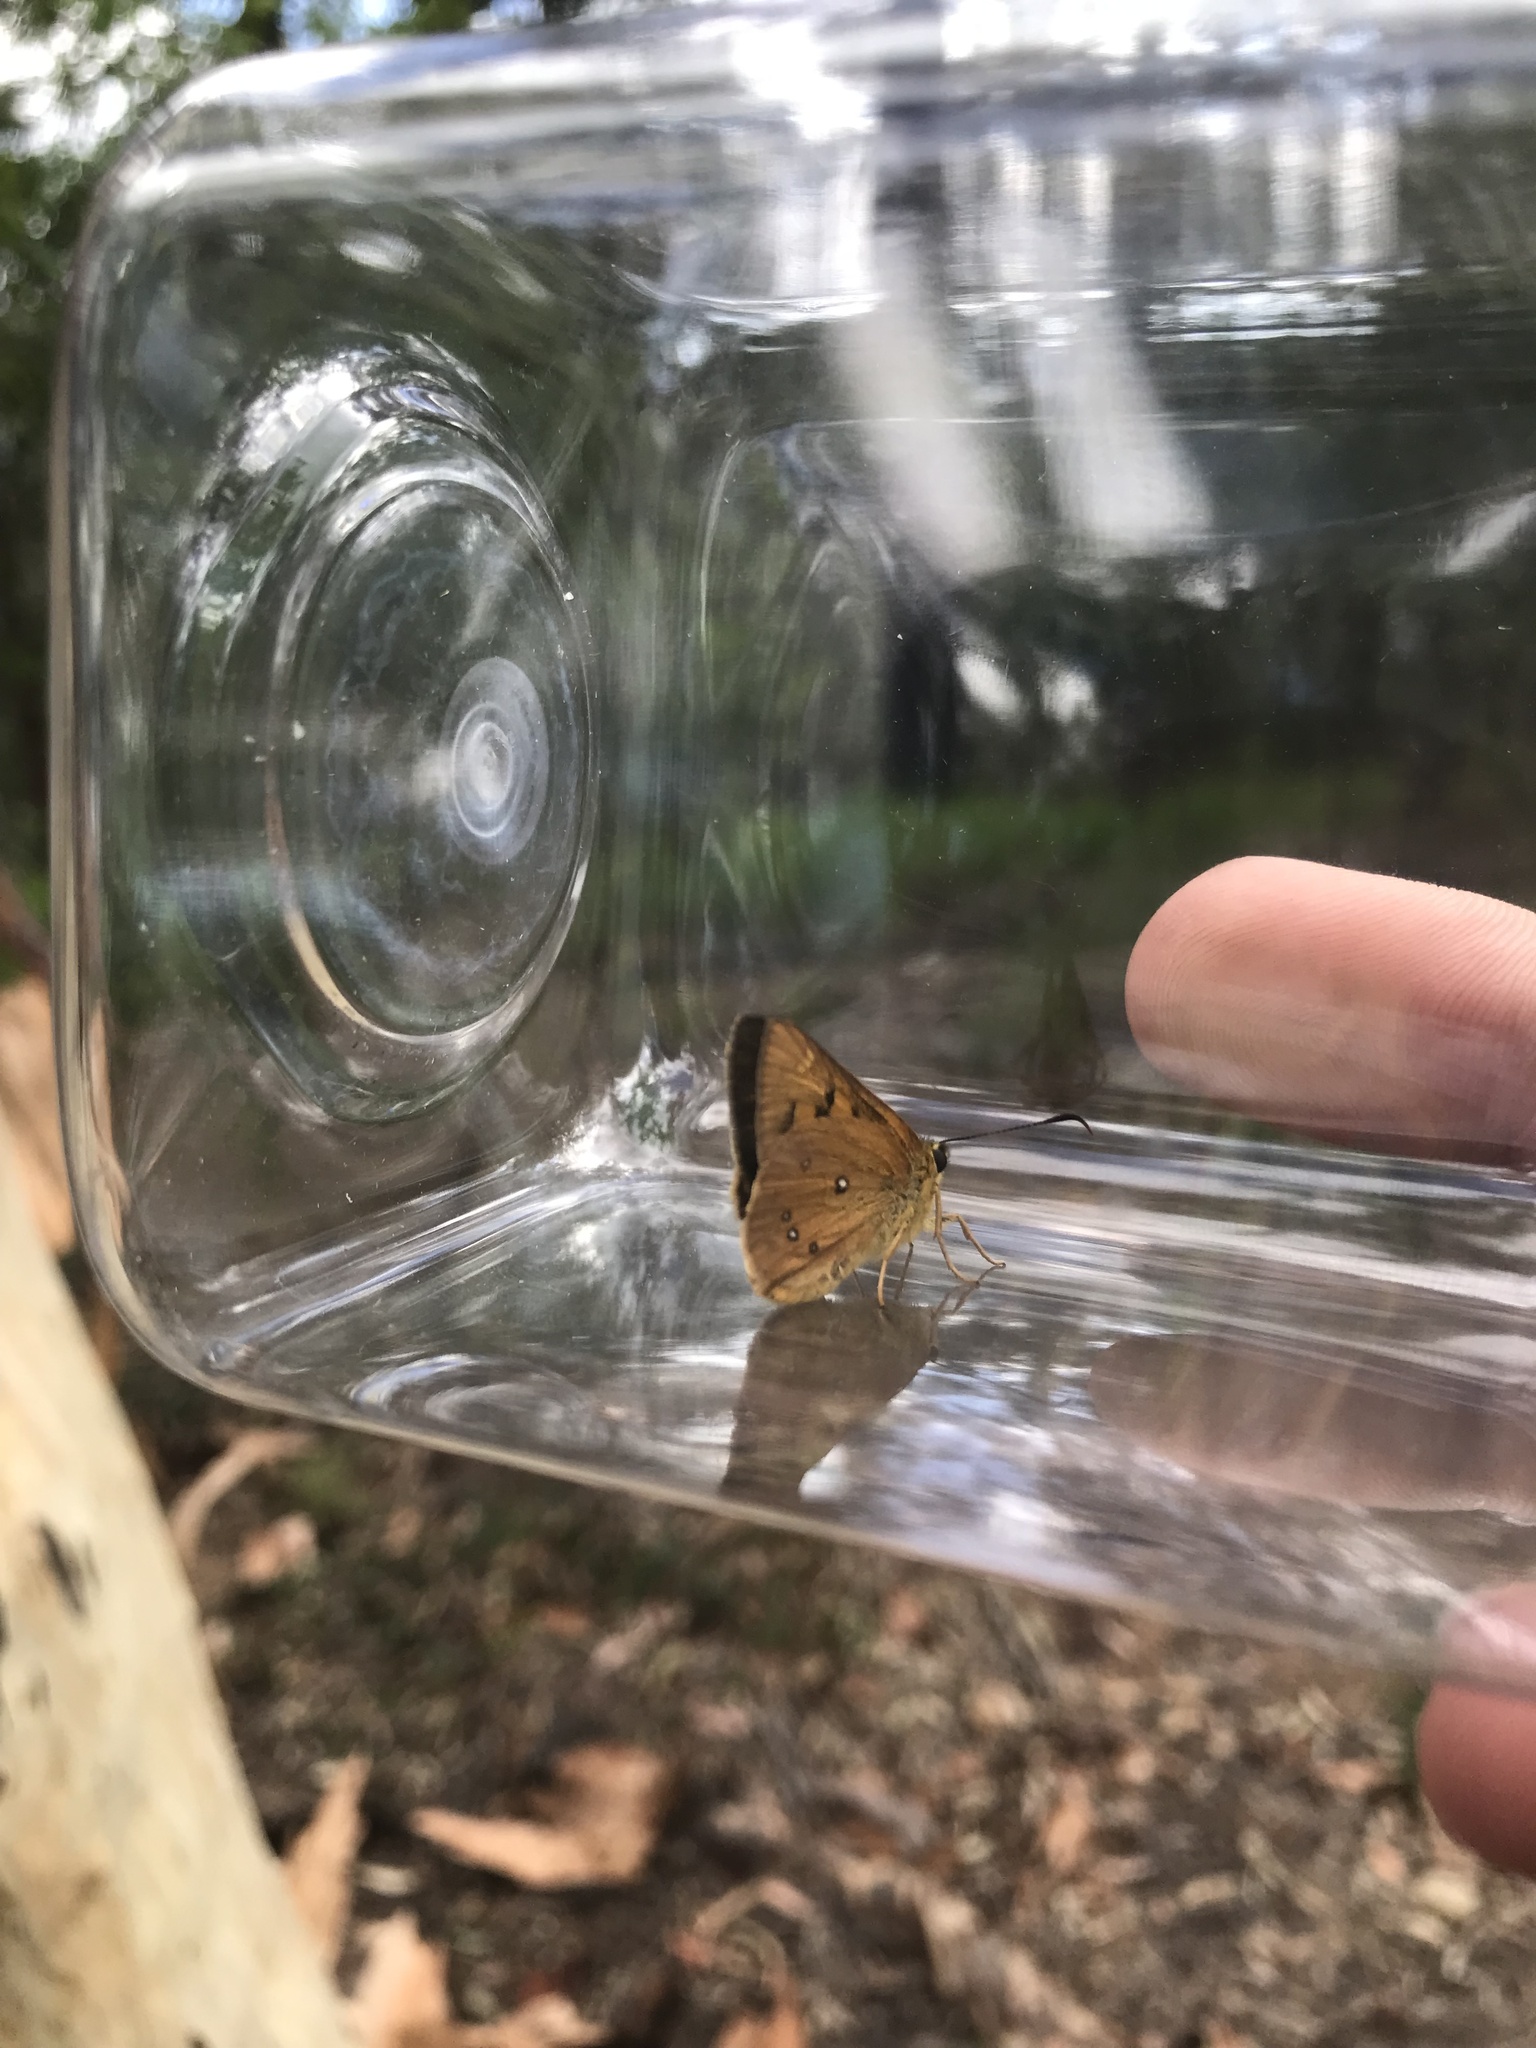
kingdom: Animalia
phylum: Arthropoda
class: Insecta
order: Lepidoptera
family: Hesperiidae
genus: Trapezites
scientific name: Trapezites eliena
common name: Eliena skipper
